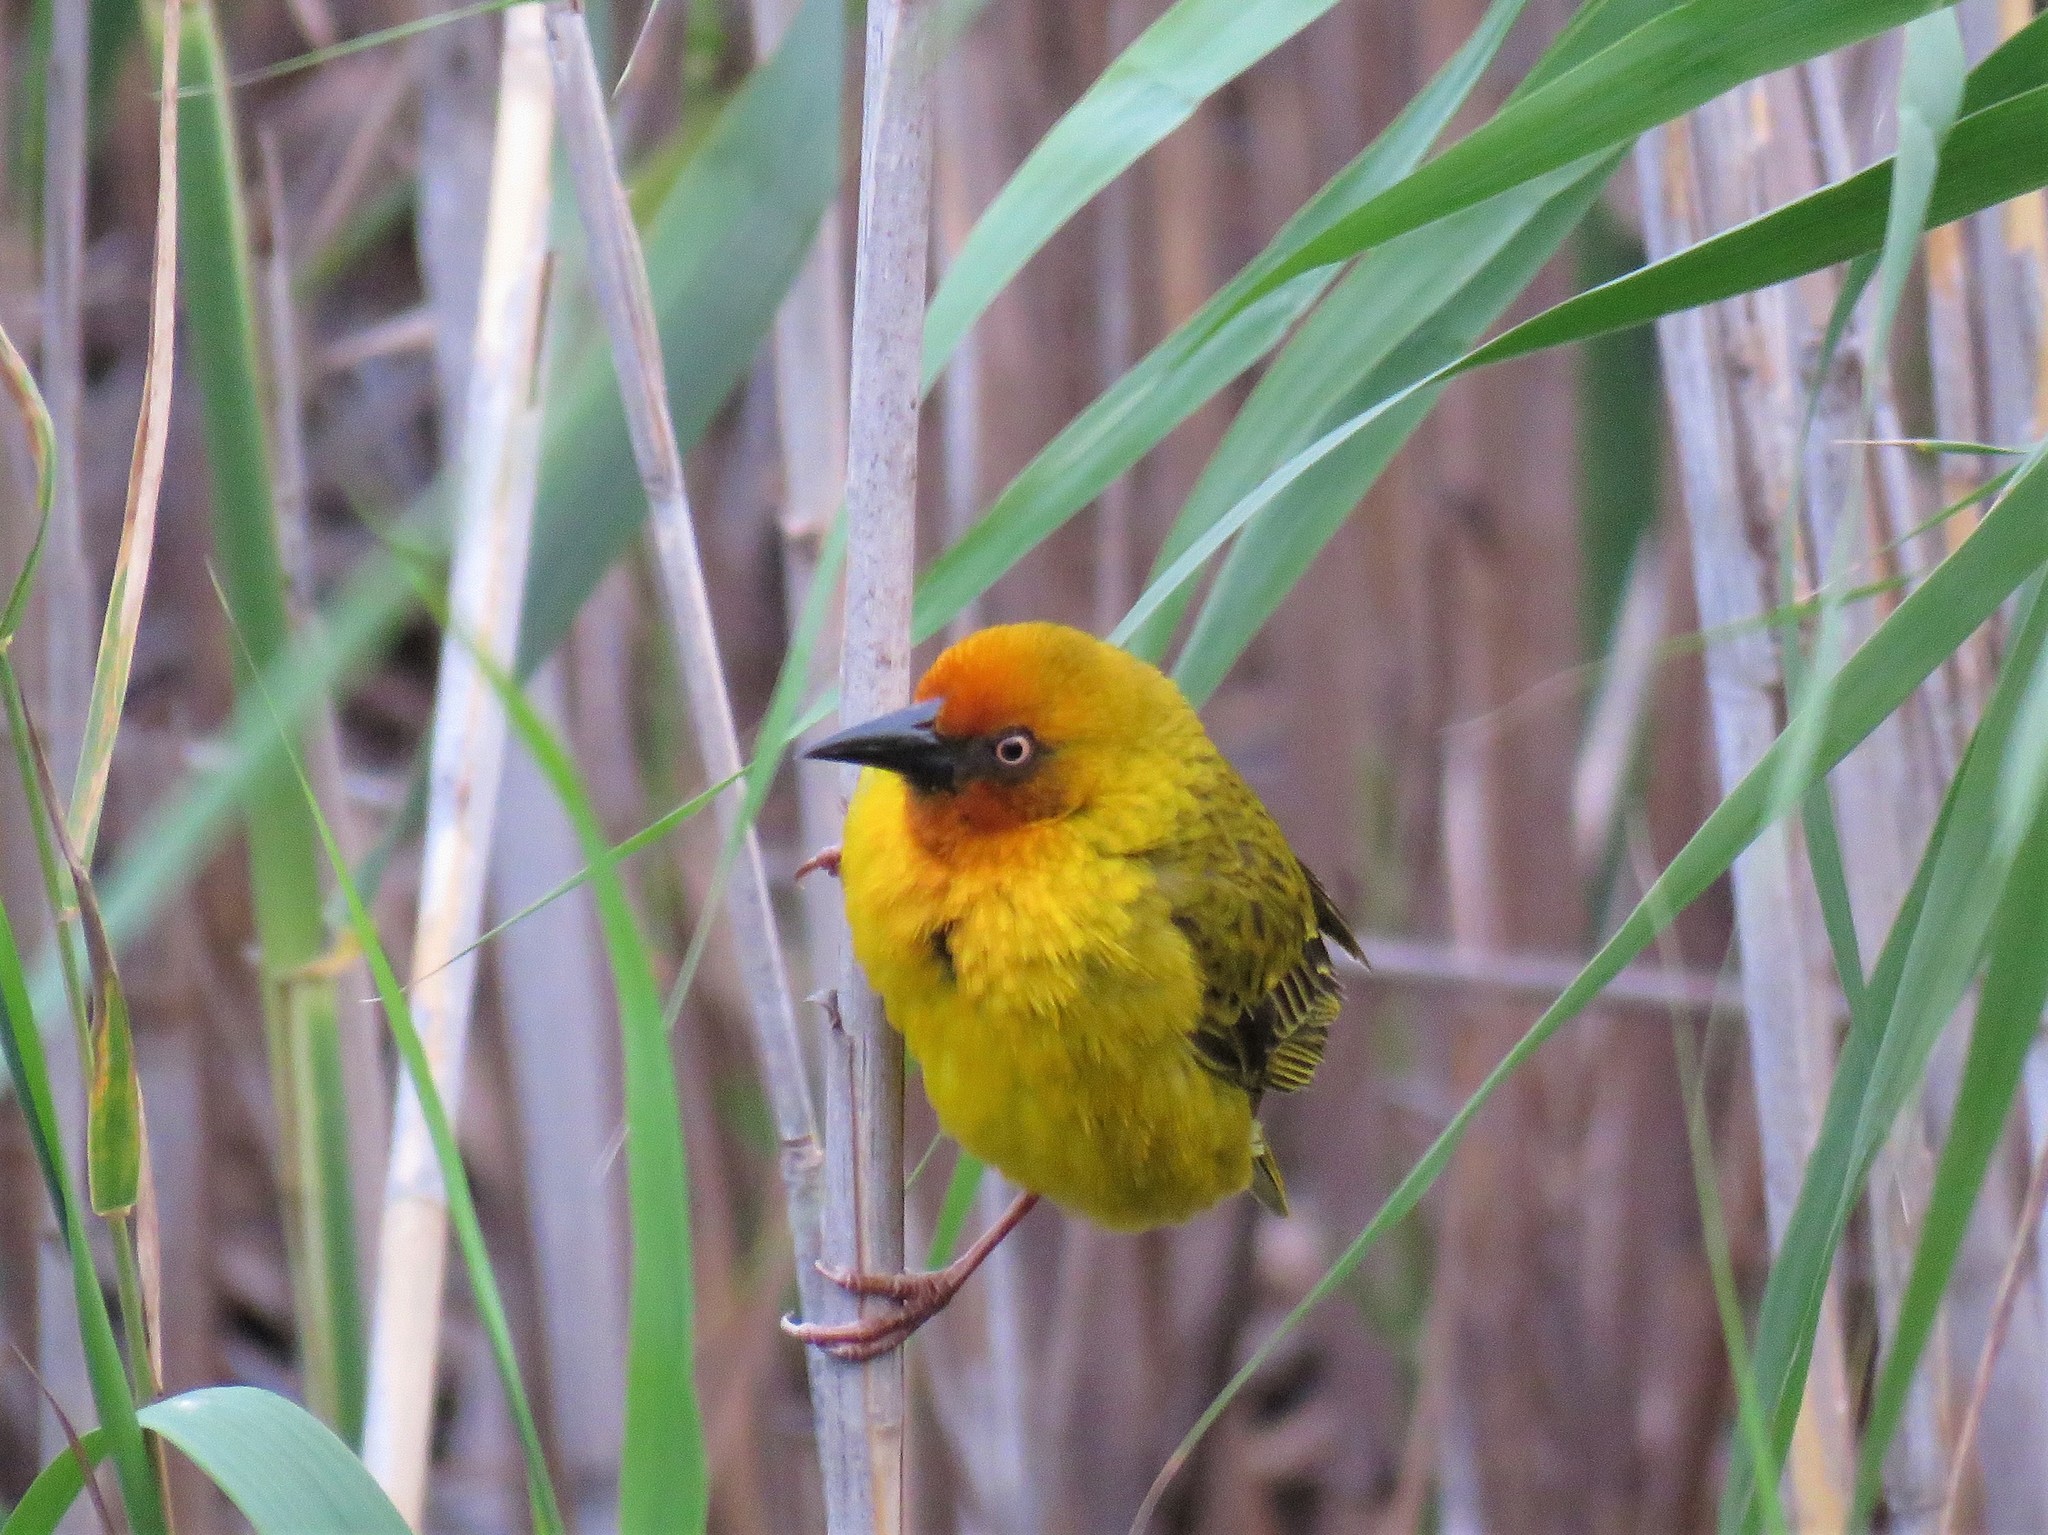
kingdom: Animalia
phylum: Chordata
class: Aves
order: Passeriformes
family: Ploceidae
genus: Ploceus
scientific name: Ploceus capensis
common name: Cape weaver
